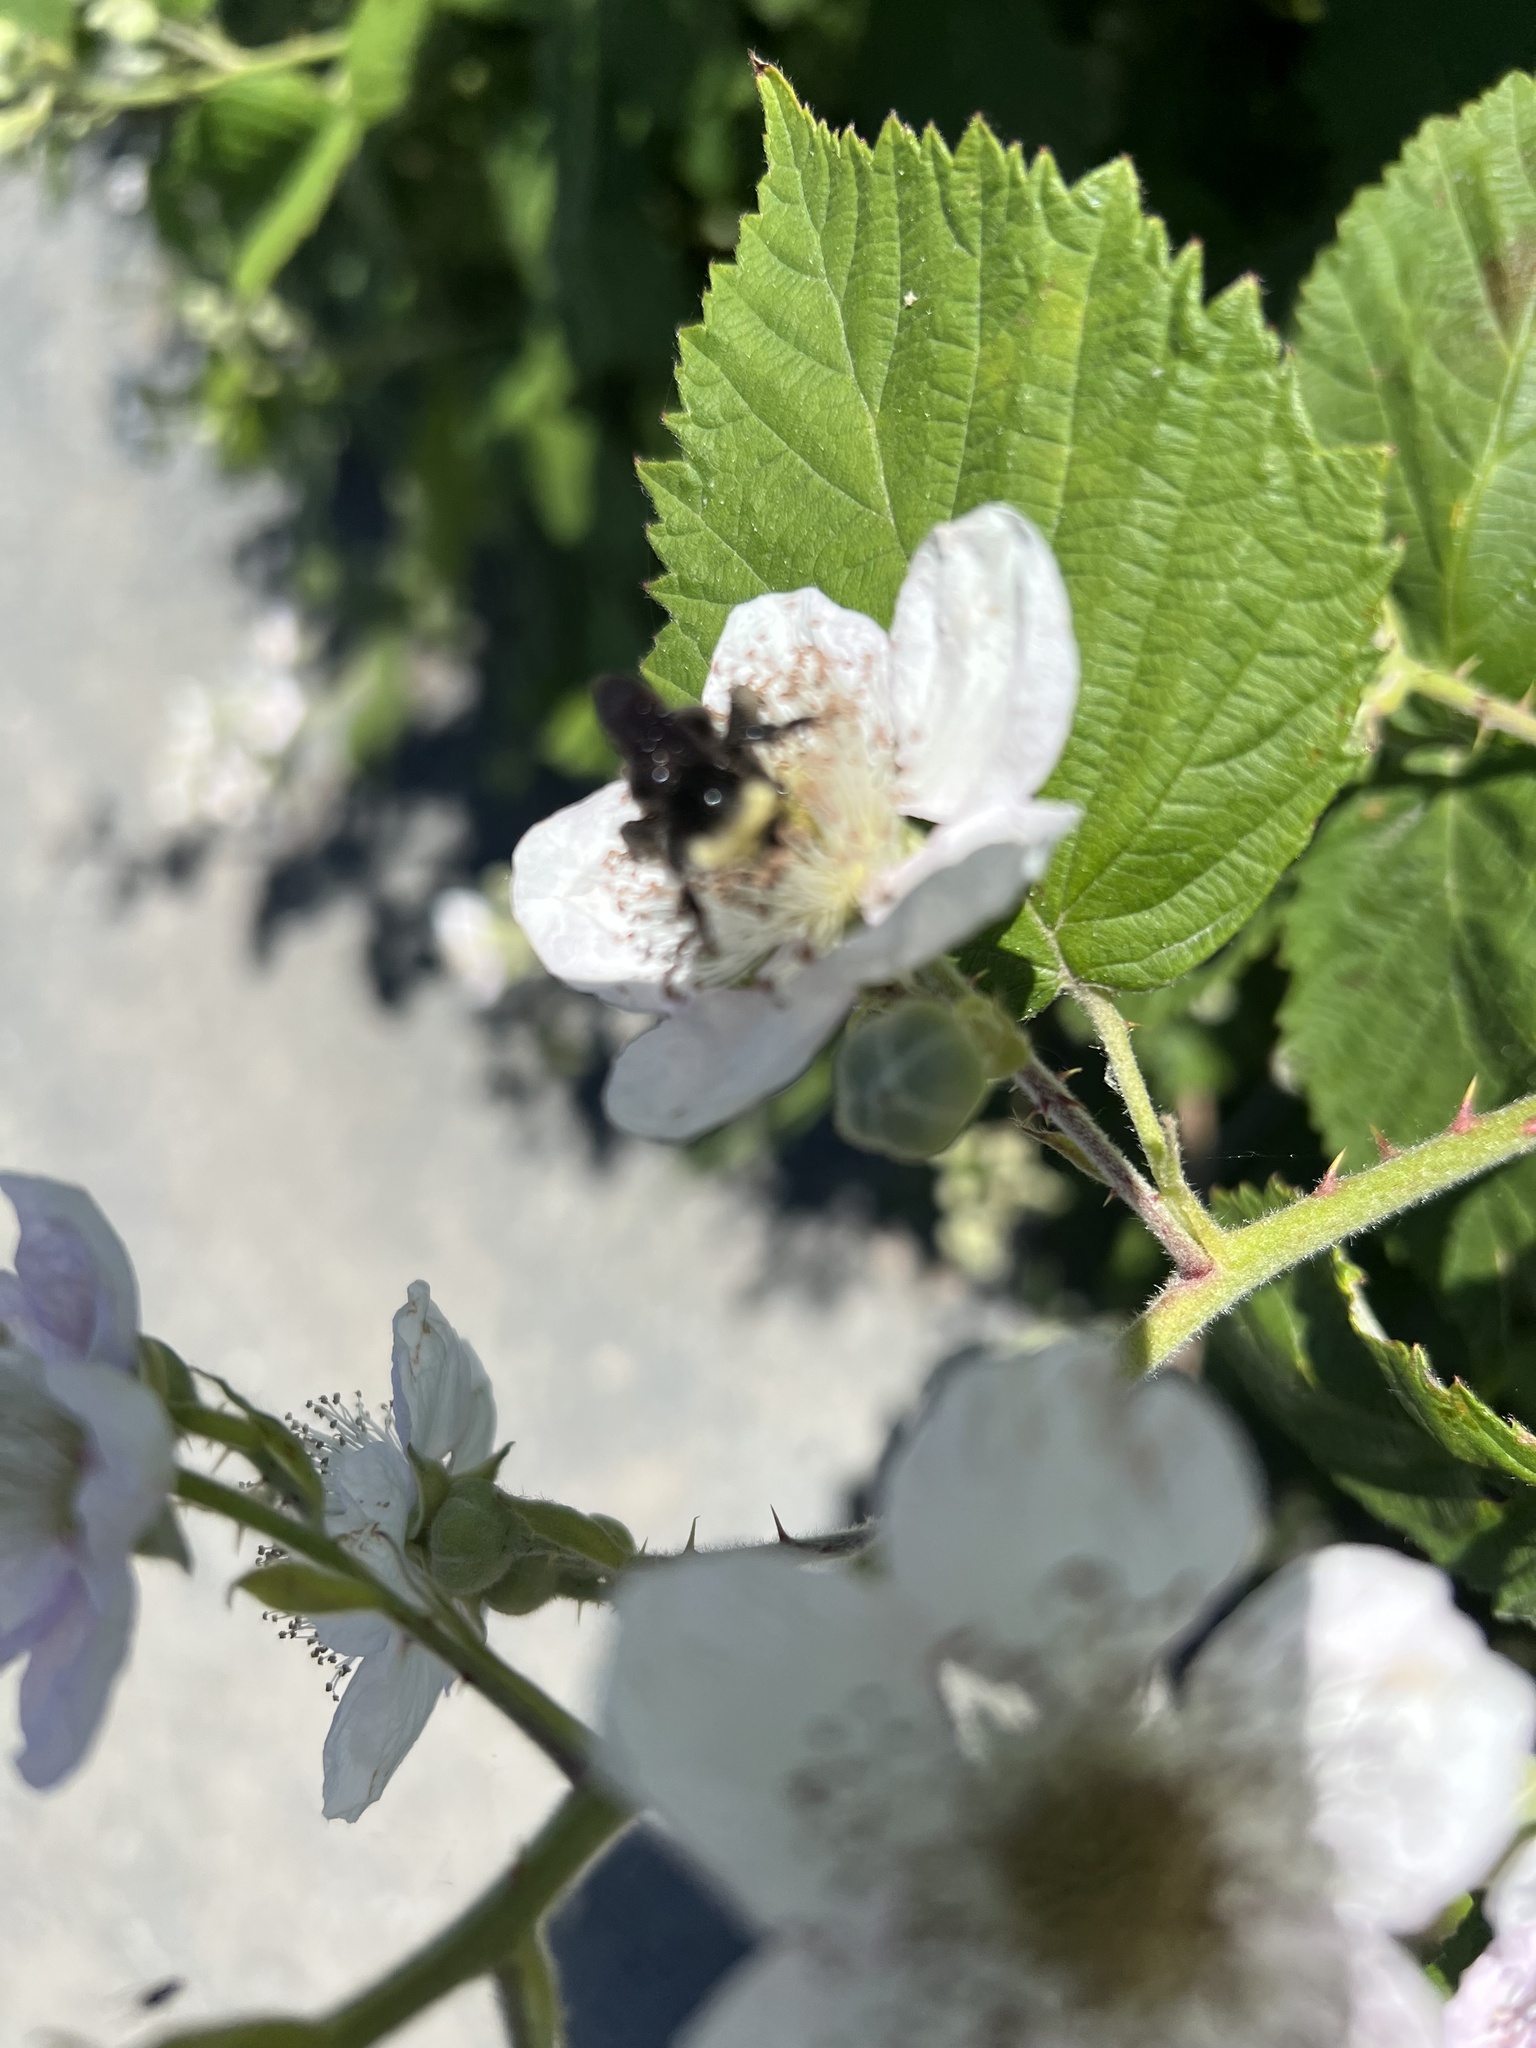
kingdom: Animalia
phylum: Arthropoda
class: Insecta
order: Hymenoptera
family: Apidae
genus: Bombus
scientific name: Bombus vosnesenskii
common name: Vosnesensky bumble bee
